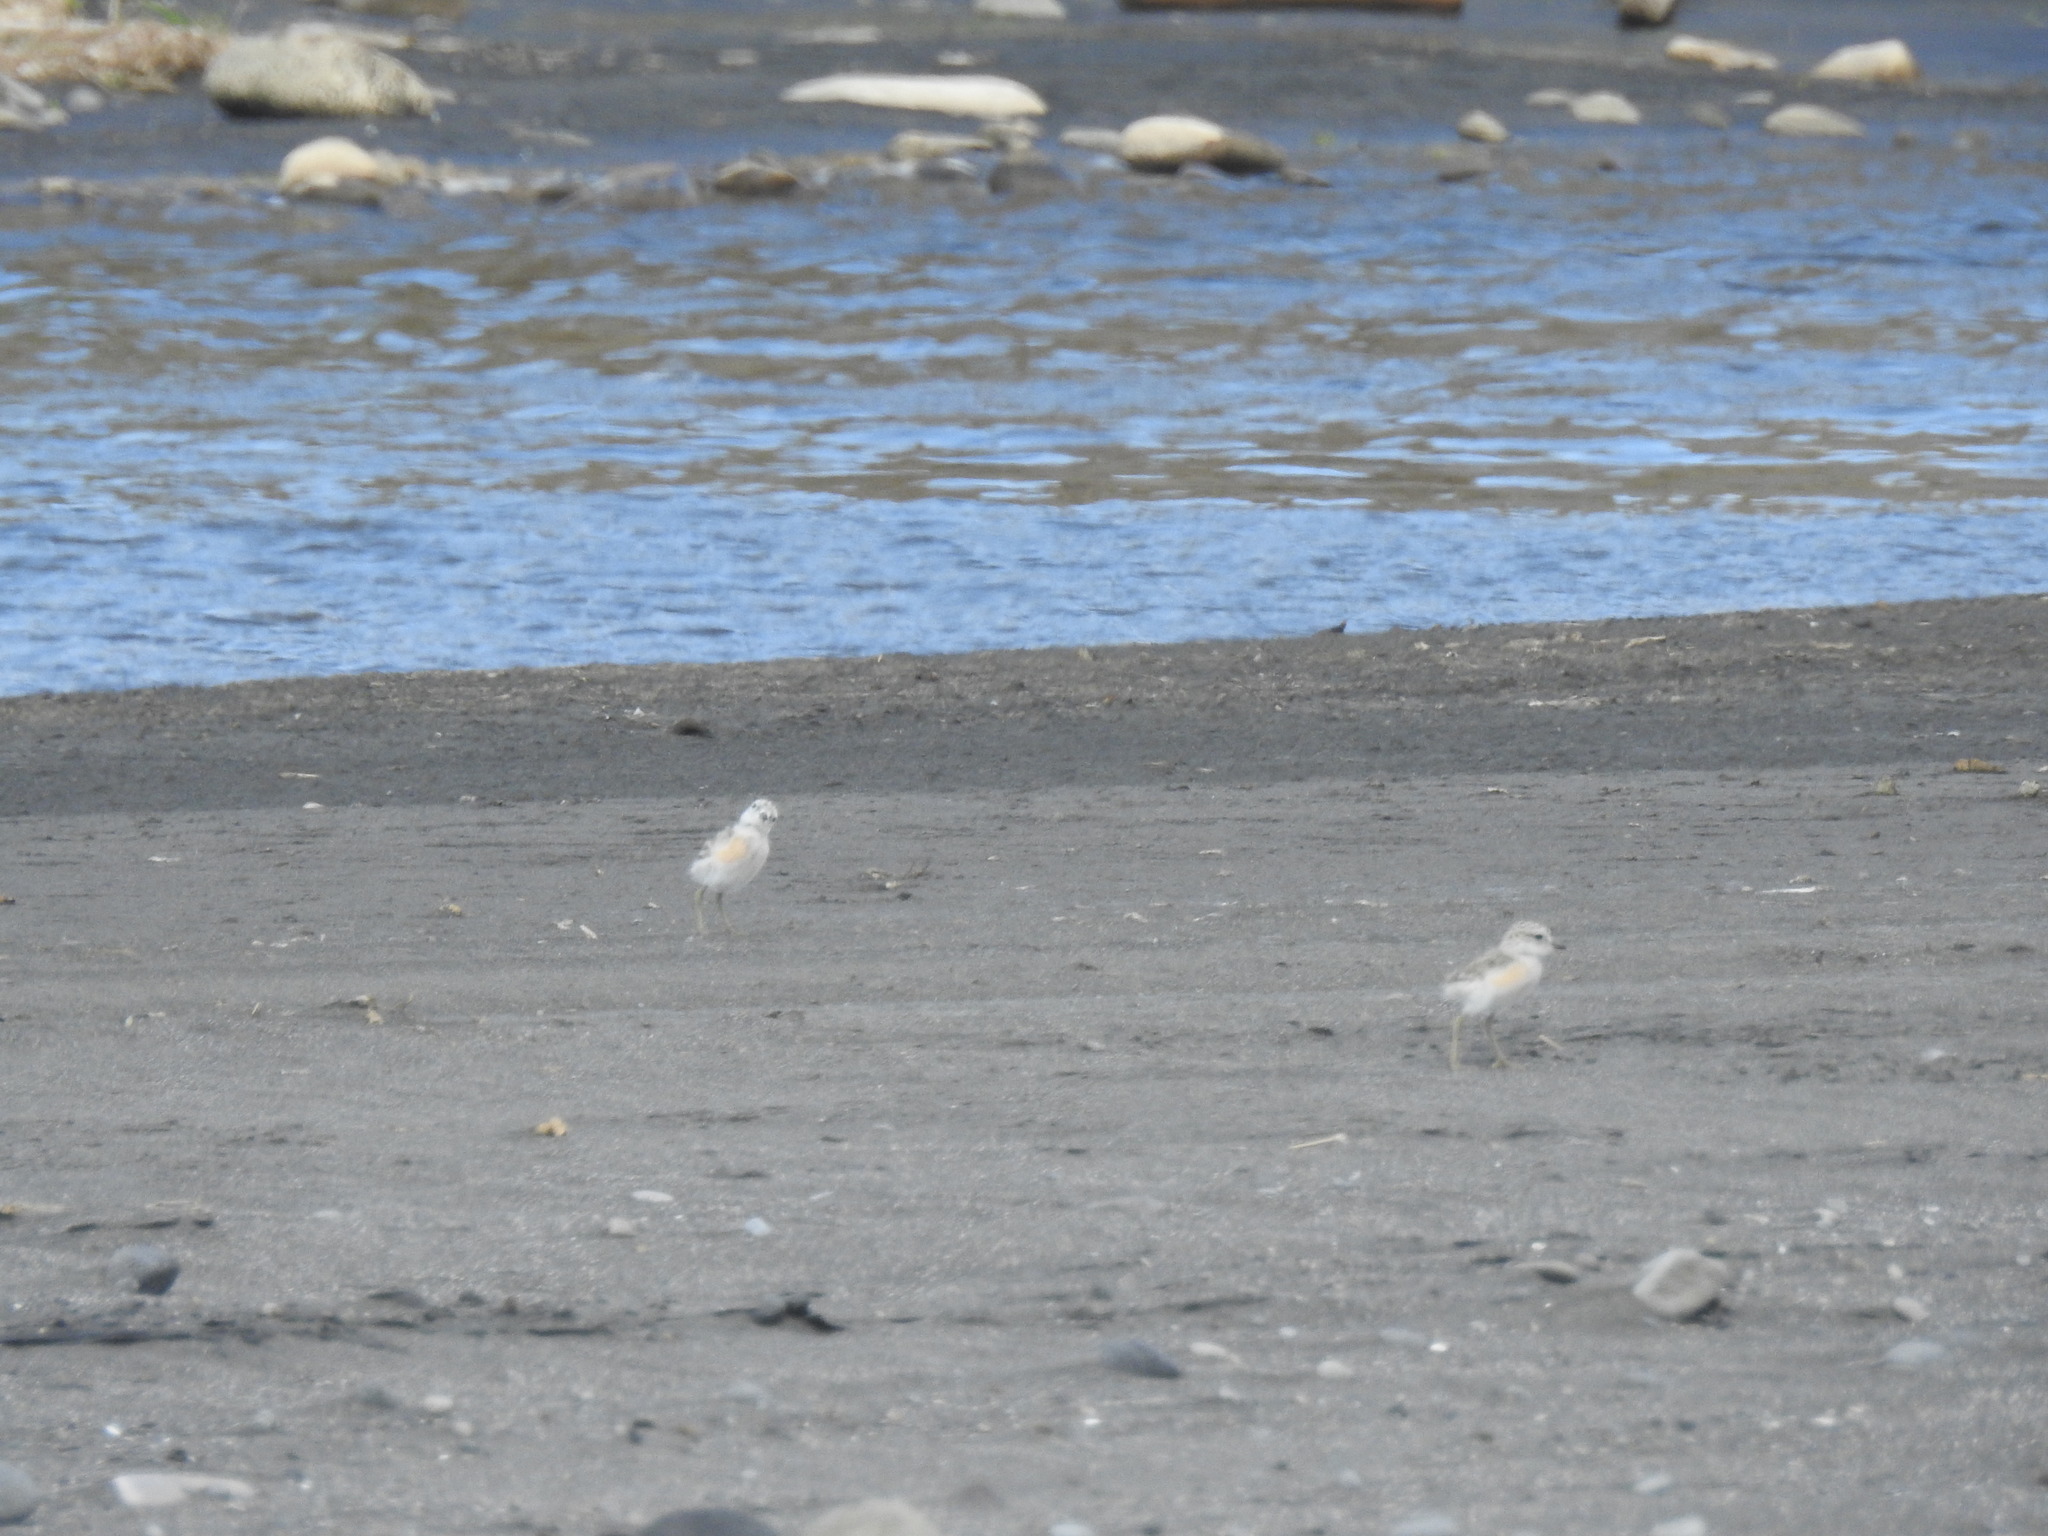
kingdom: Animalia
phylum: Chordata
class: Aves
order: Charadriiformes
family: Charadriidae
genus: Anarhynchus
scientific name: Anarhynchus
